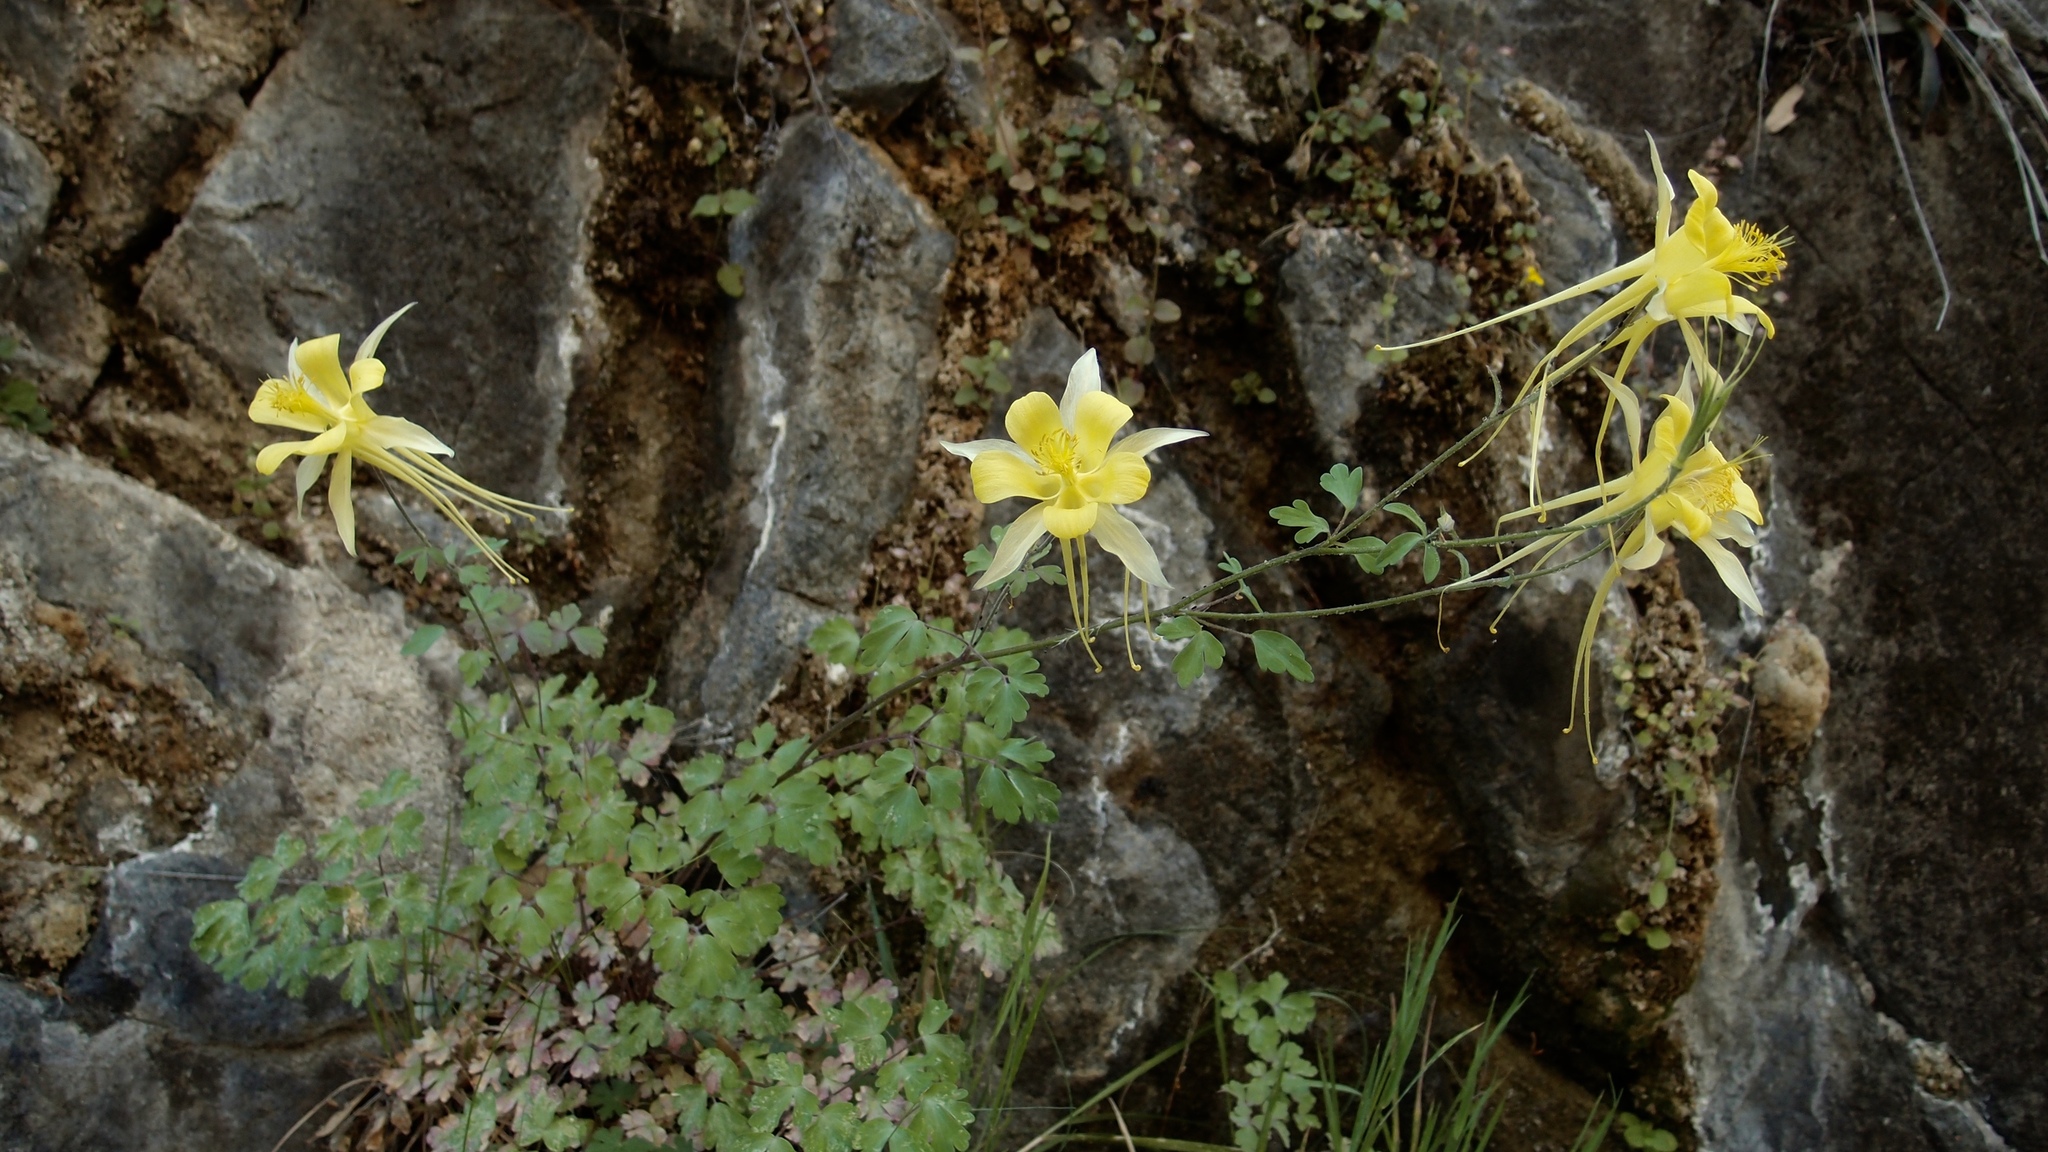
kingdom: Plantae
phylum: Tracheophyta
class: Magnoliopsida
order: Ranunculales
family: Ranunculaceae
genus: Aquilegia
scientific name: Aquilegia chrysantha
